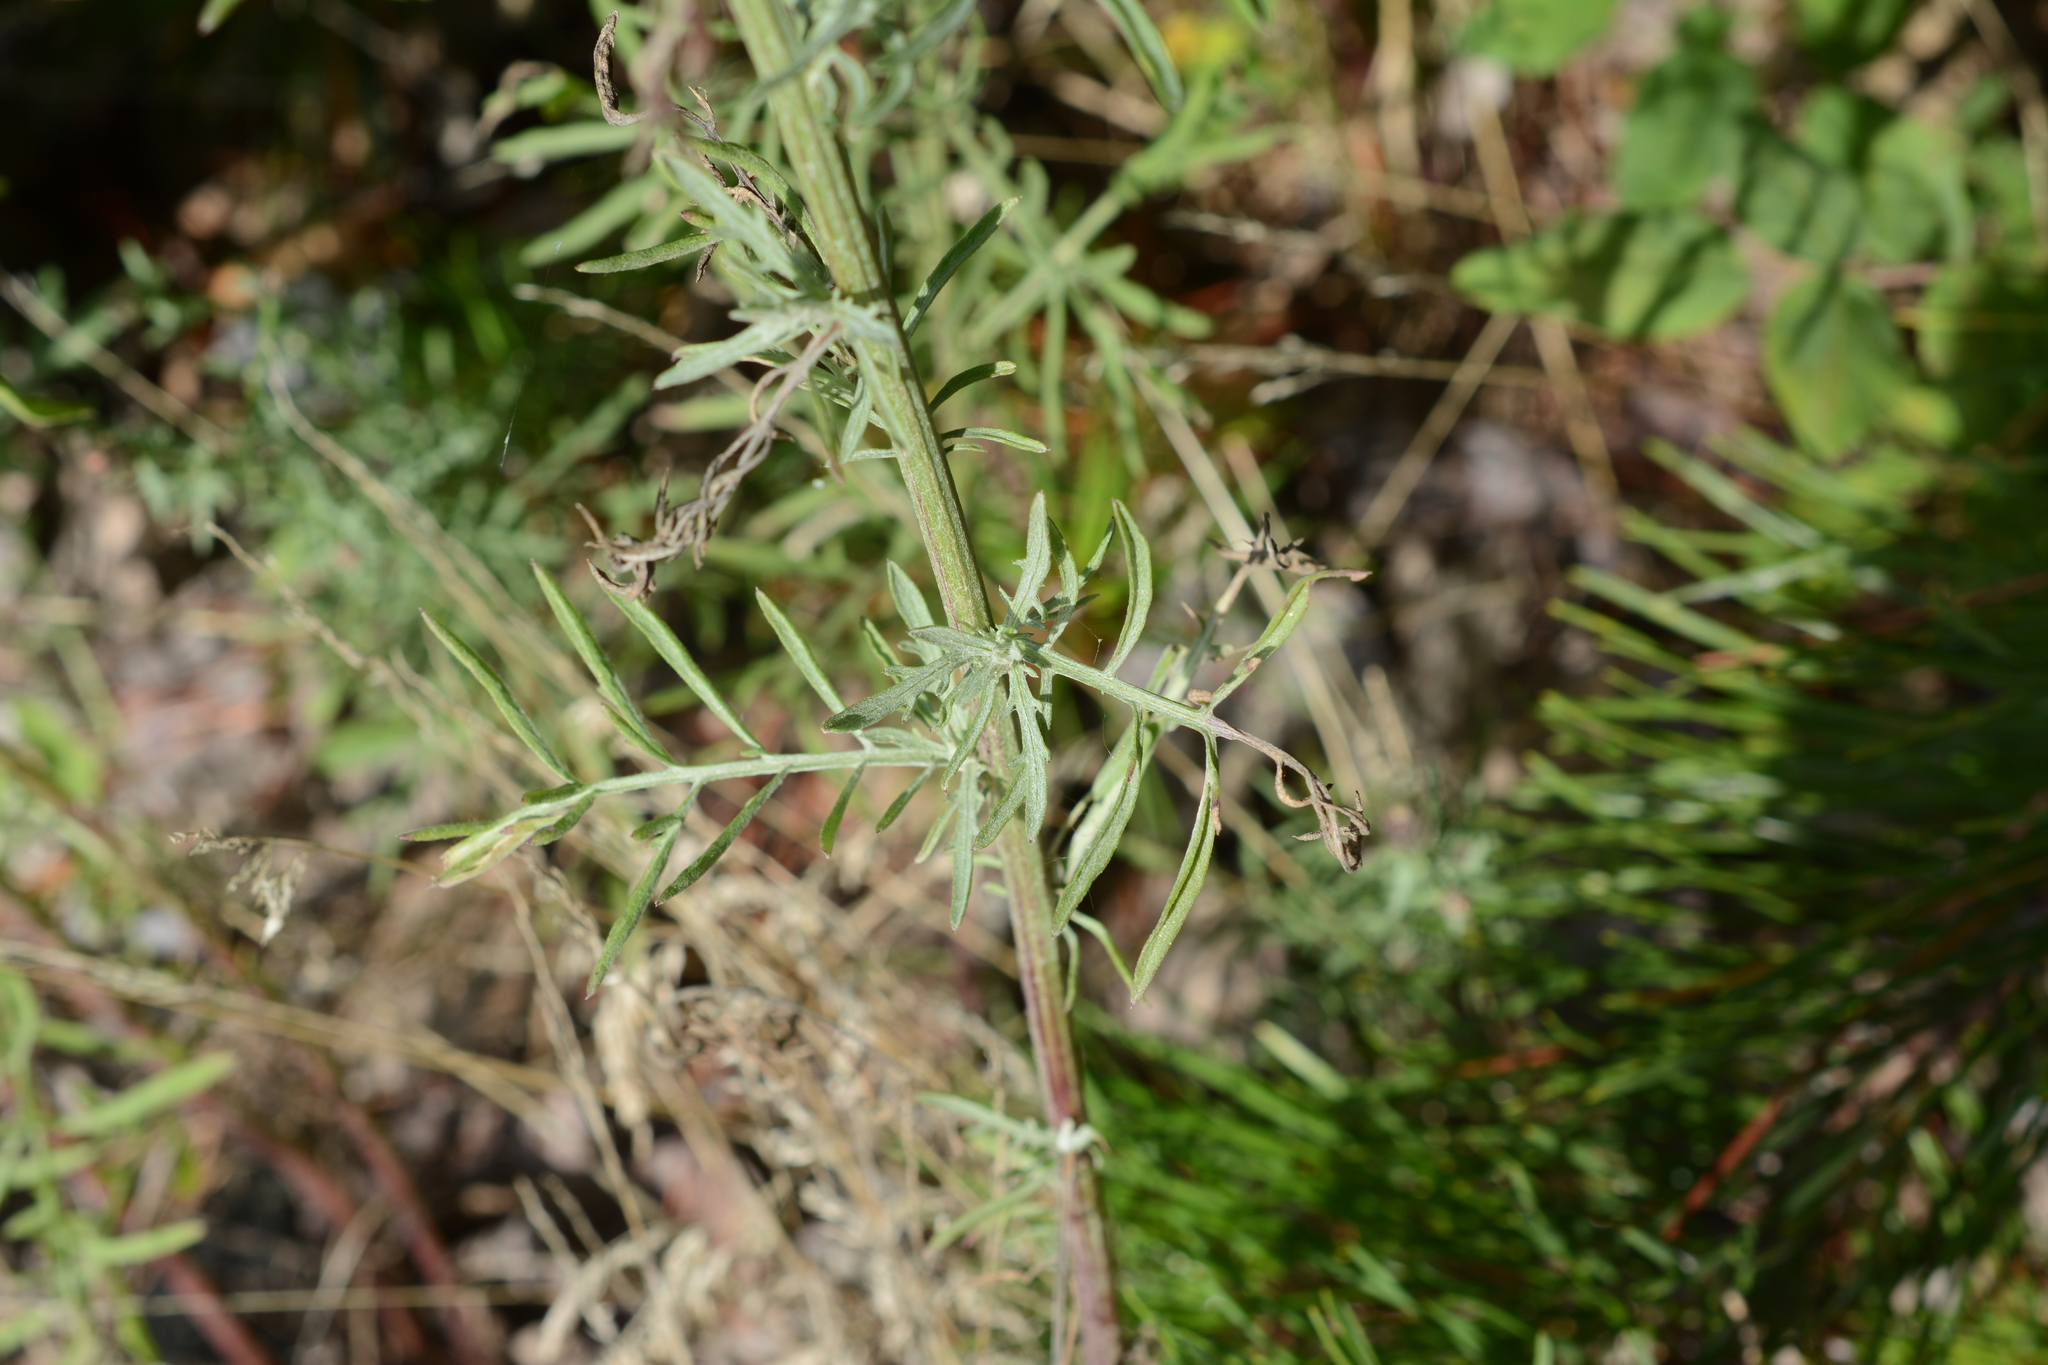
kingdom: Plantae
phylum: Tracheophyta
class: Magnoliopsida
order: Asterales
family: Asteraceae
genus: Centaurea
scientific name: Centaurea stoebe
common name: Spotted knapweed
